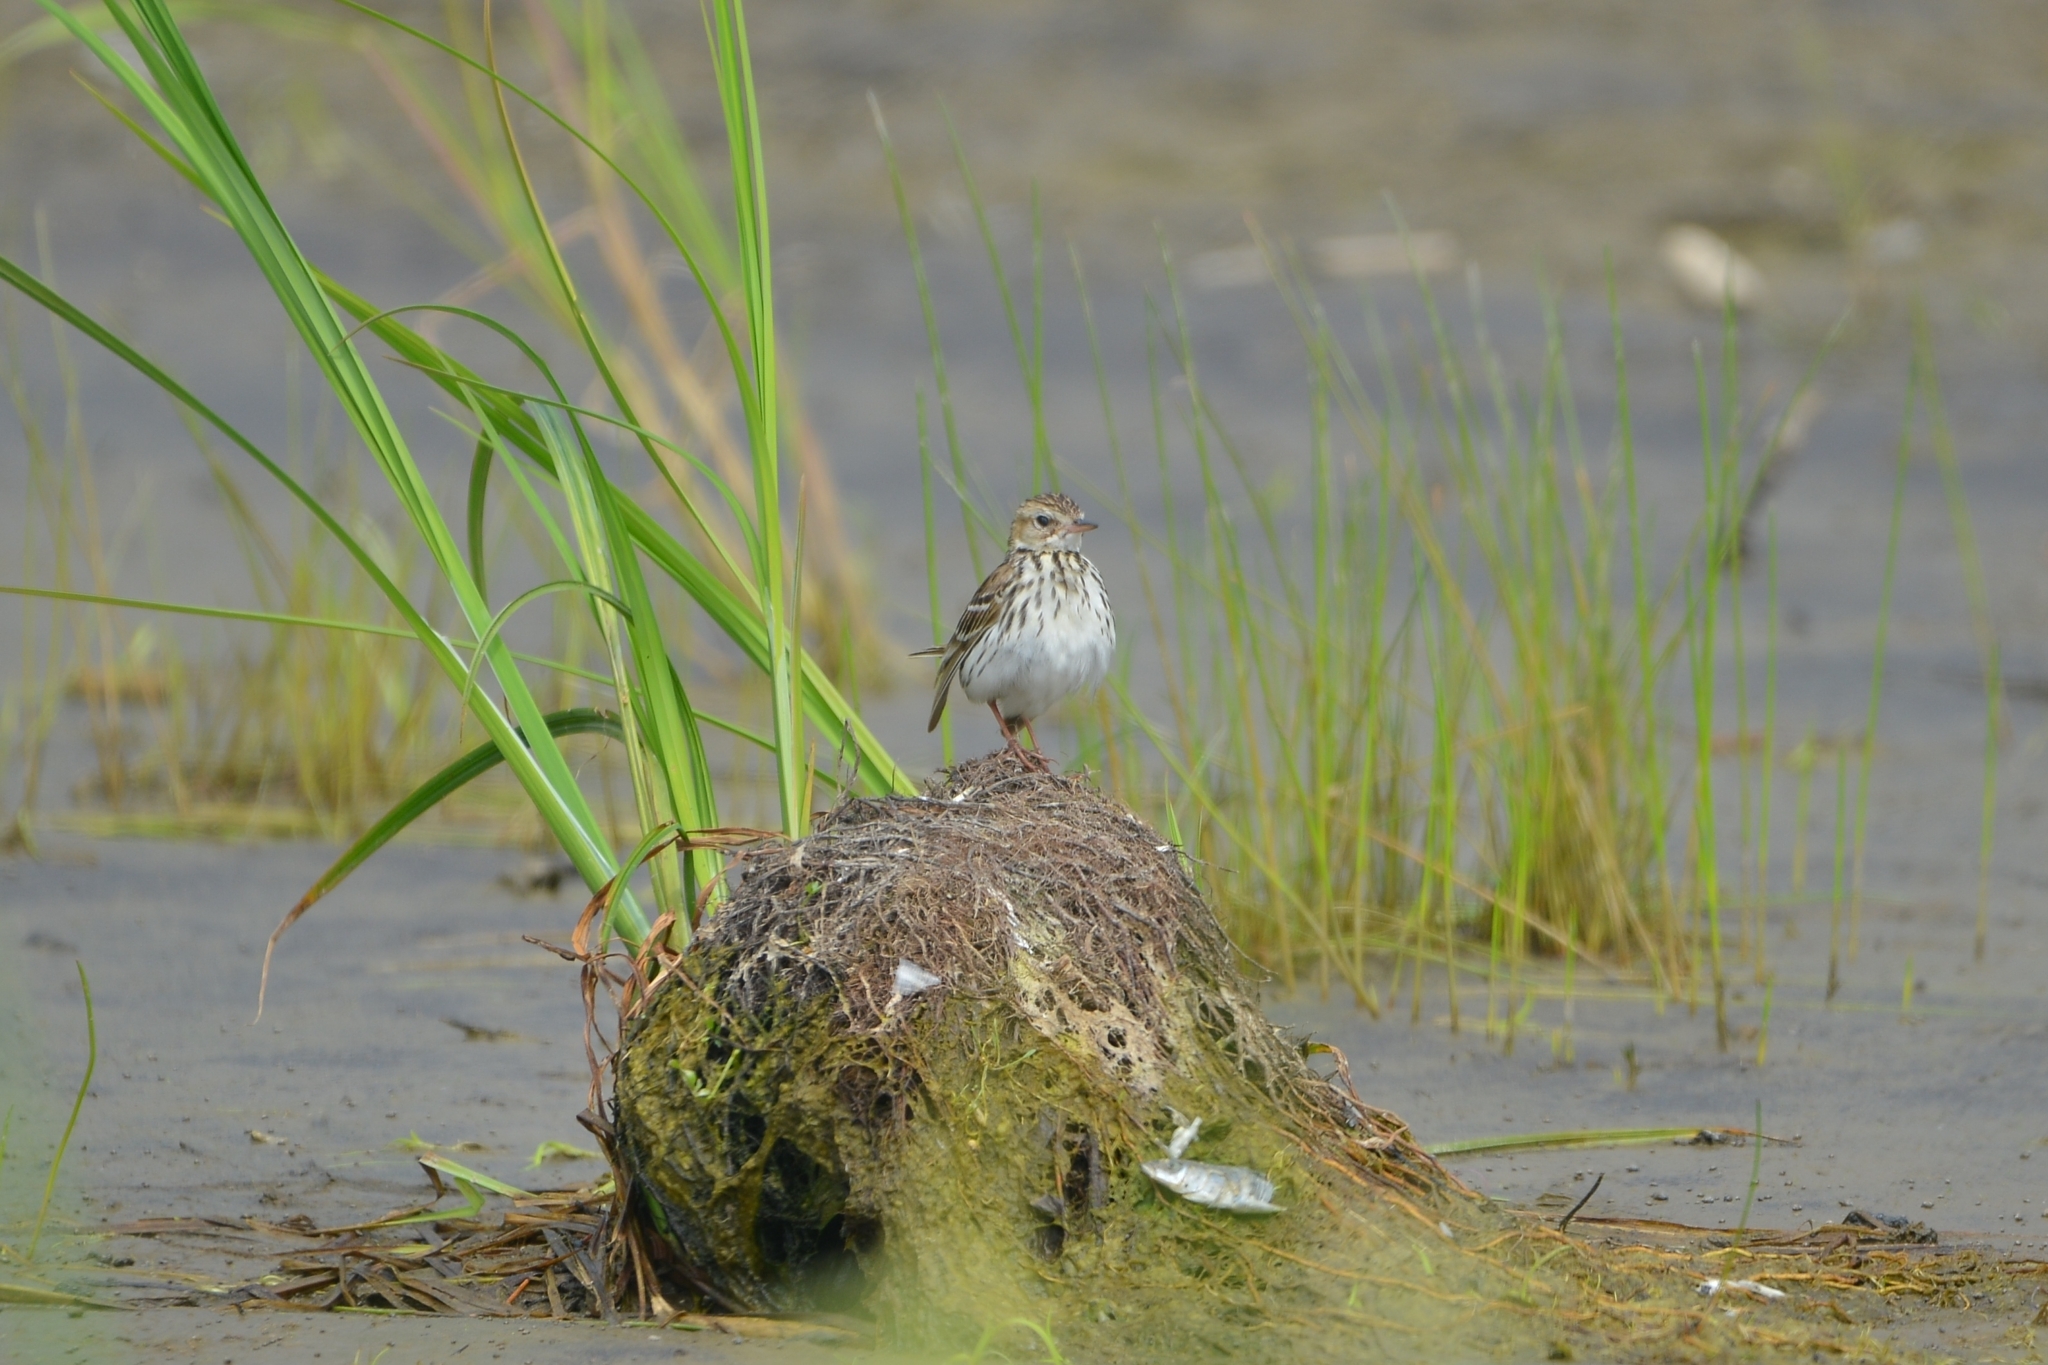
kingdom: Animalia
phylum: Chordata
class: Aves
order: Passeriformes
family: Motacillidae
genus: Anthus
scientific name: Anthus gustavi
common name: Pechora pipit
